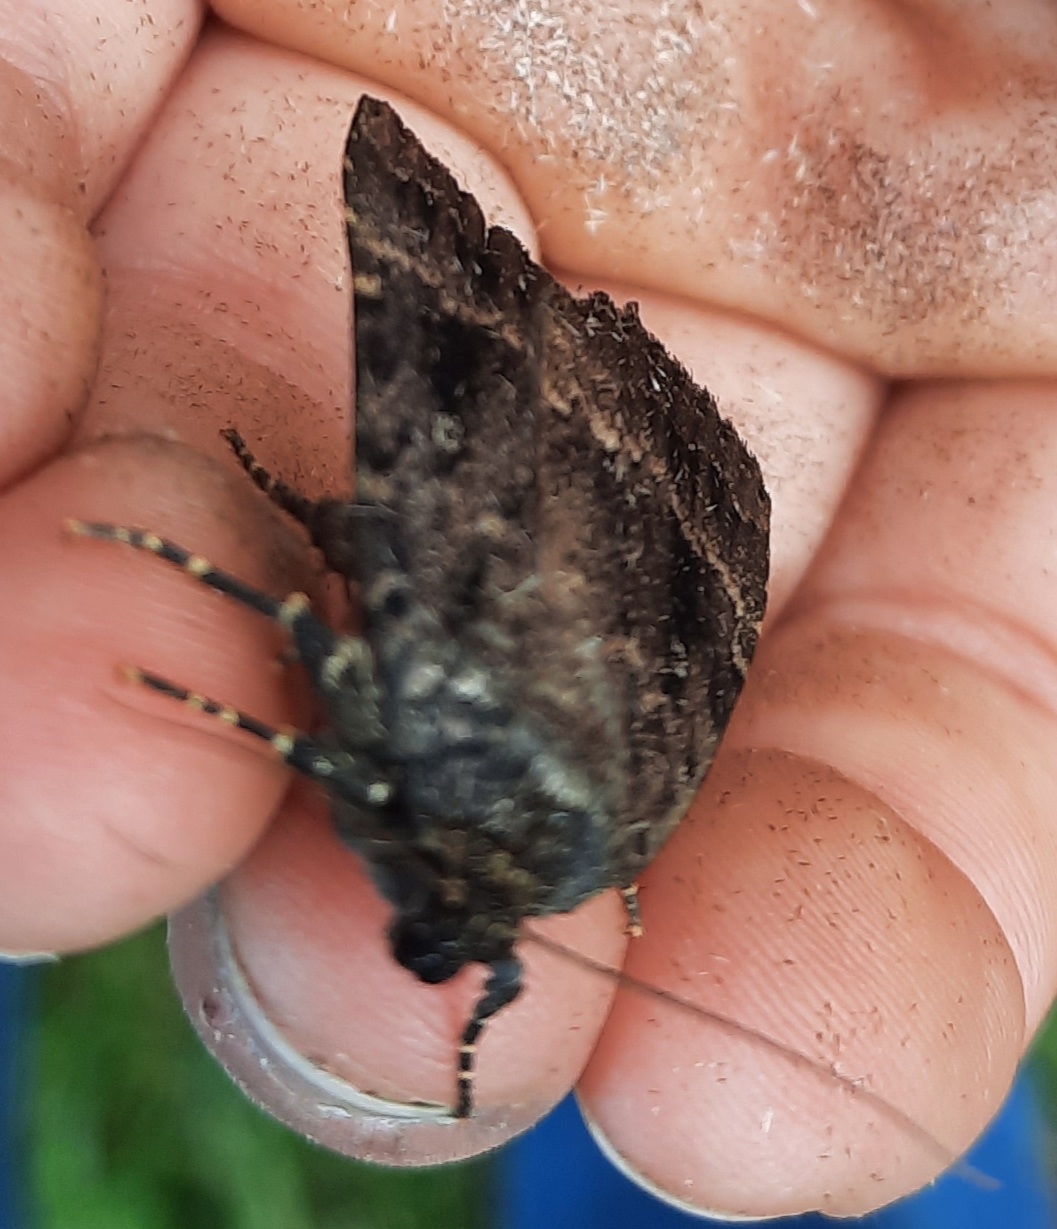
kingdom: Animalia
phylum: Arthropoda
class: Insecta
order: Lepidoptera
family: Noctuidae
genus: Amphipyra
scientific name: Amphipyra pyramidea
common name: Copper underwing
